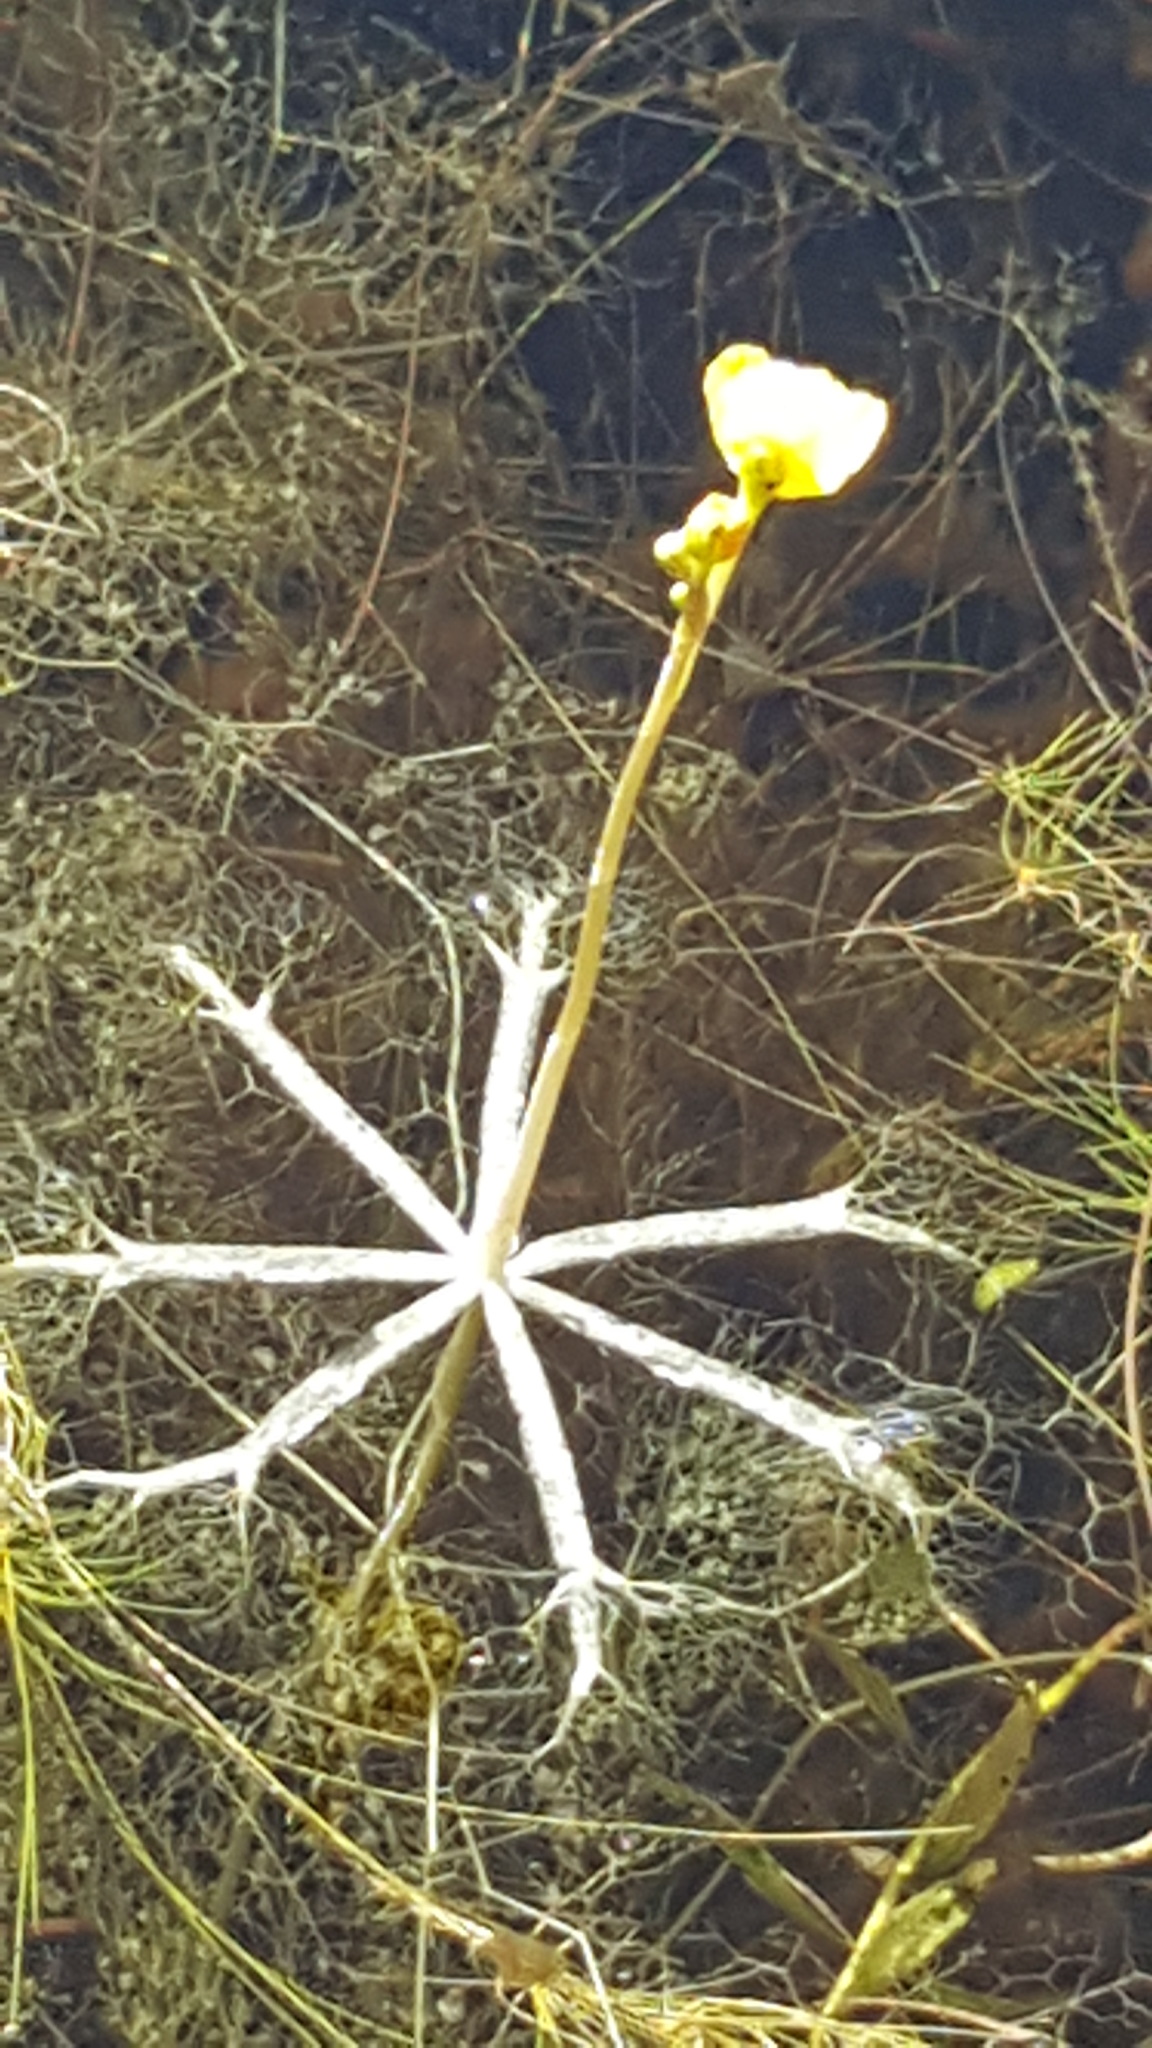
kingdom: Plantae
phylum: Tracheophyta
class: Magnoliopsida
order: Lamiales
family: Lentibulariaceae
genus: Utricularia
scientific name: Utricularia radiata
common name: Floating bladderwort
